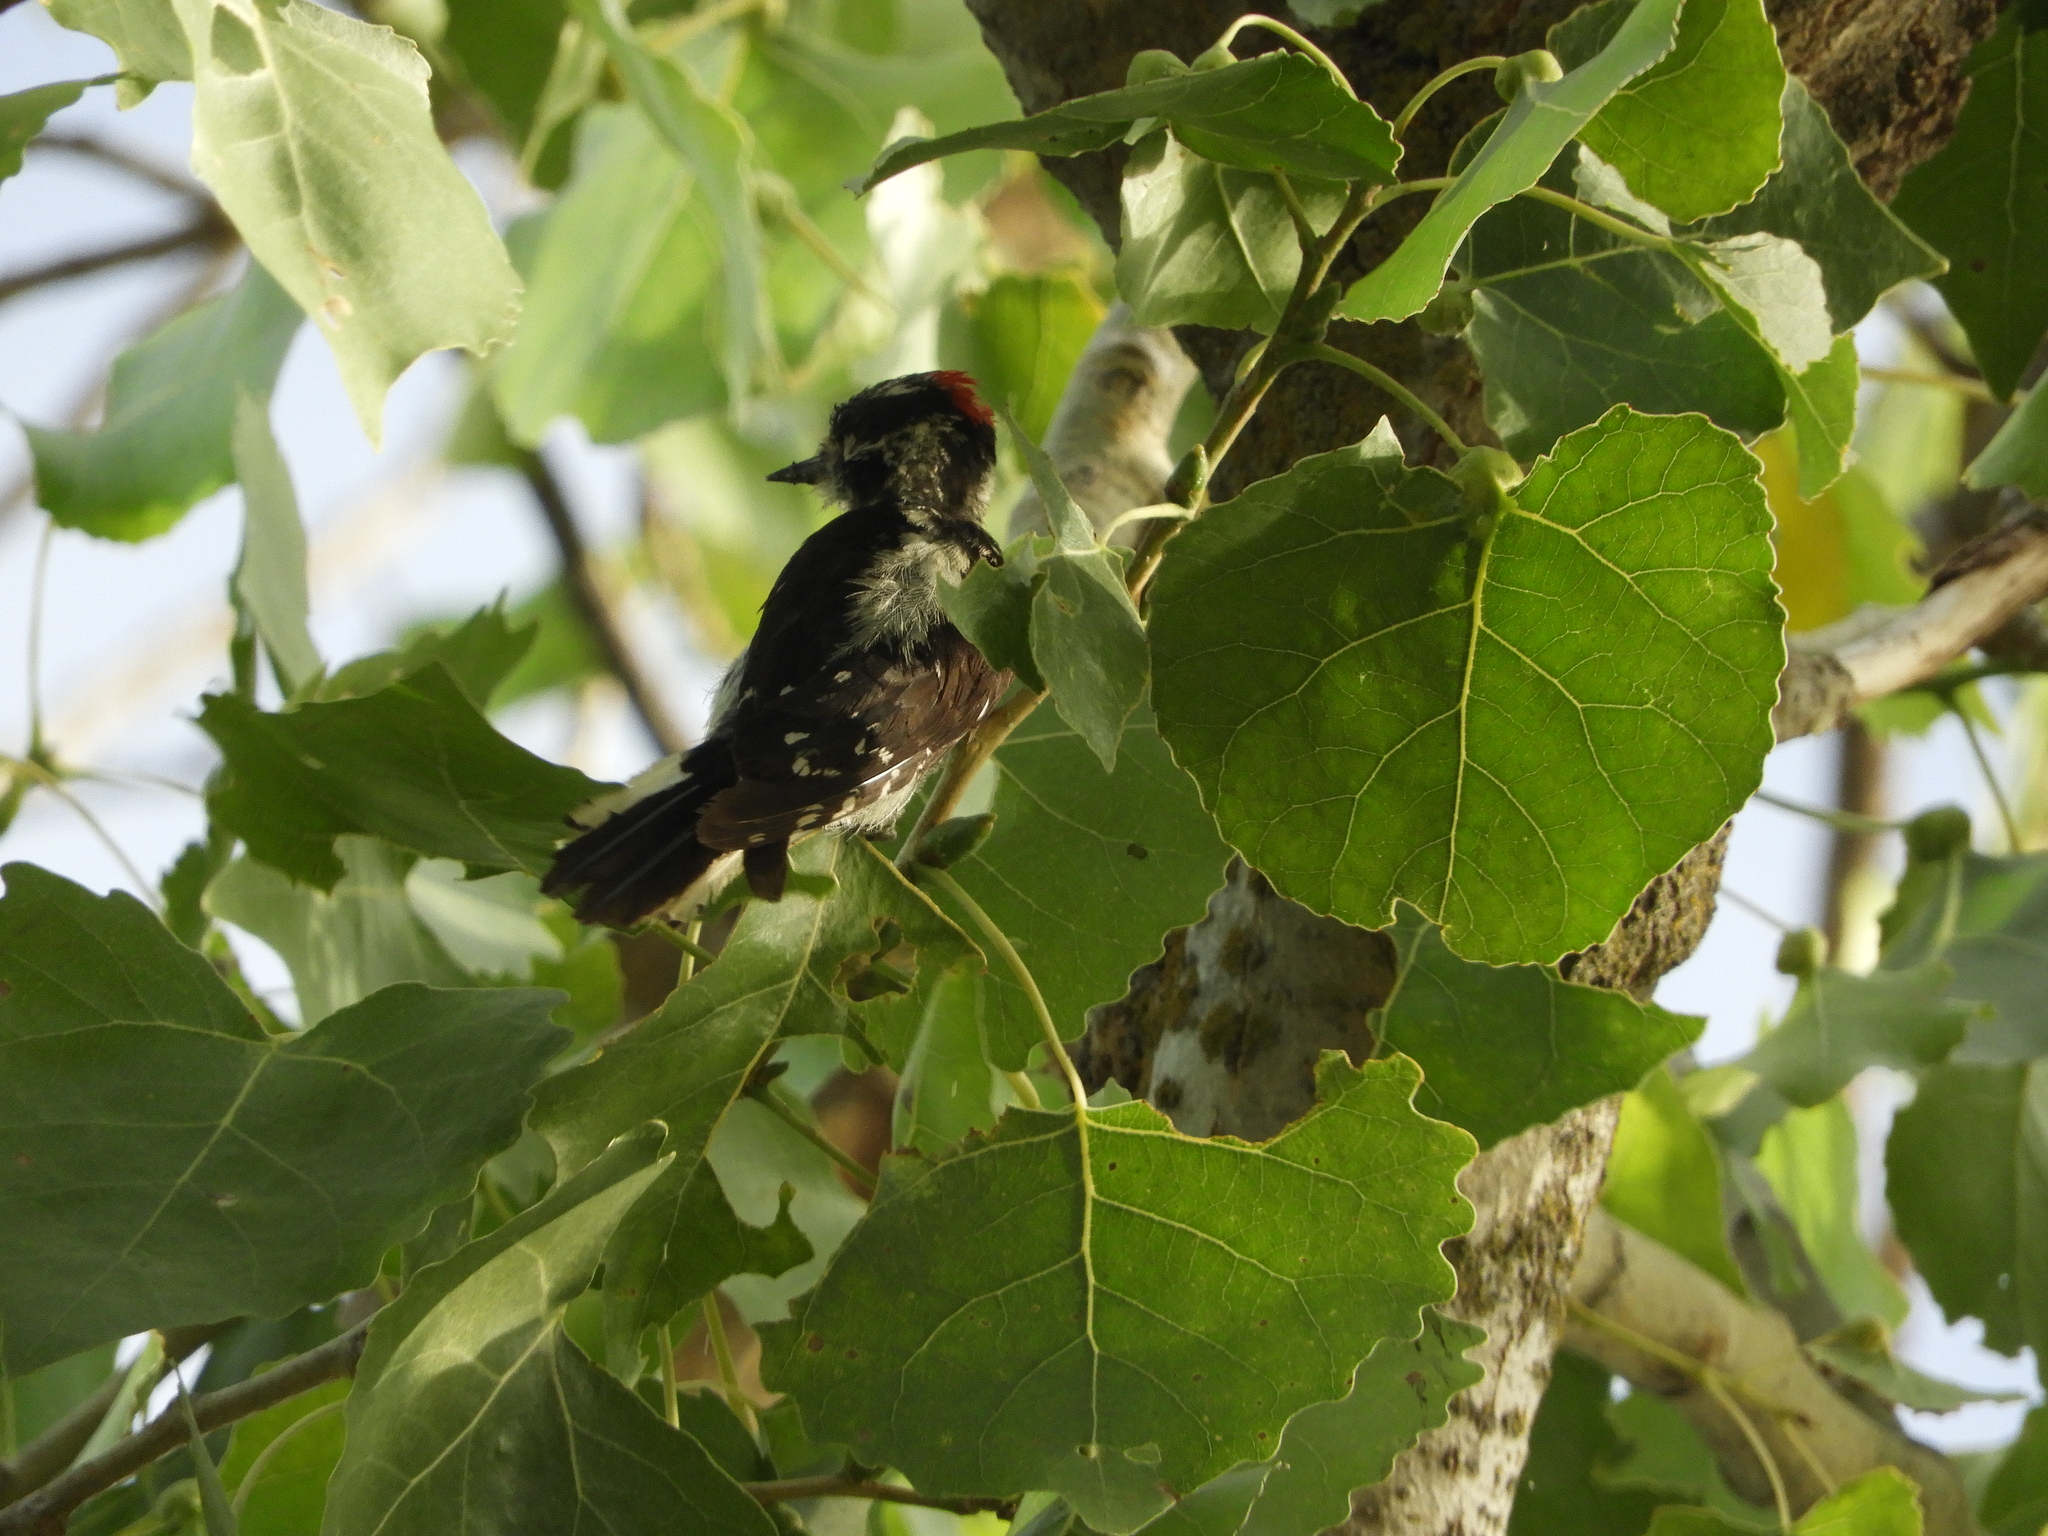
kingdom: Animalia
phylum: Chordata
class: Aves
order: Piciformes
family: Picidae
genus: Dryobates
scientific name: Dryobates pubescens
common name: Downy woodpecker
